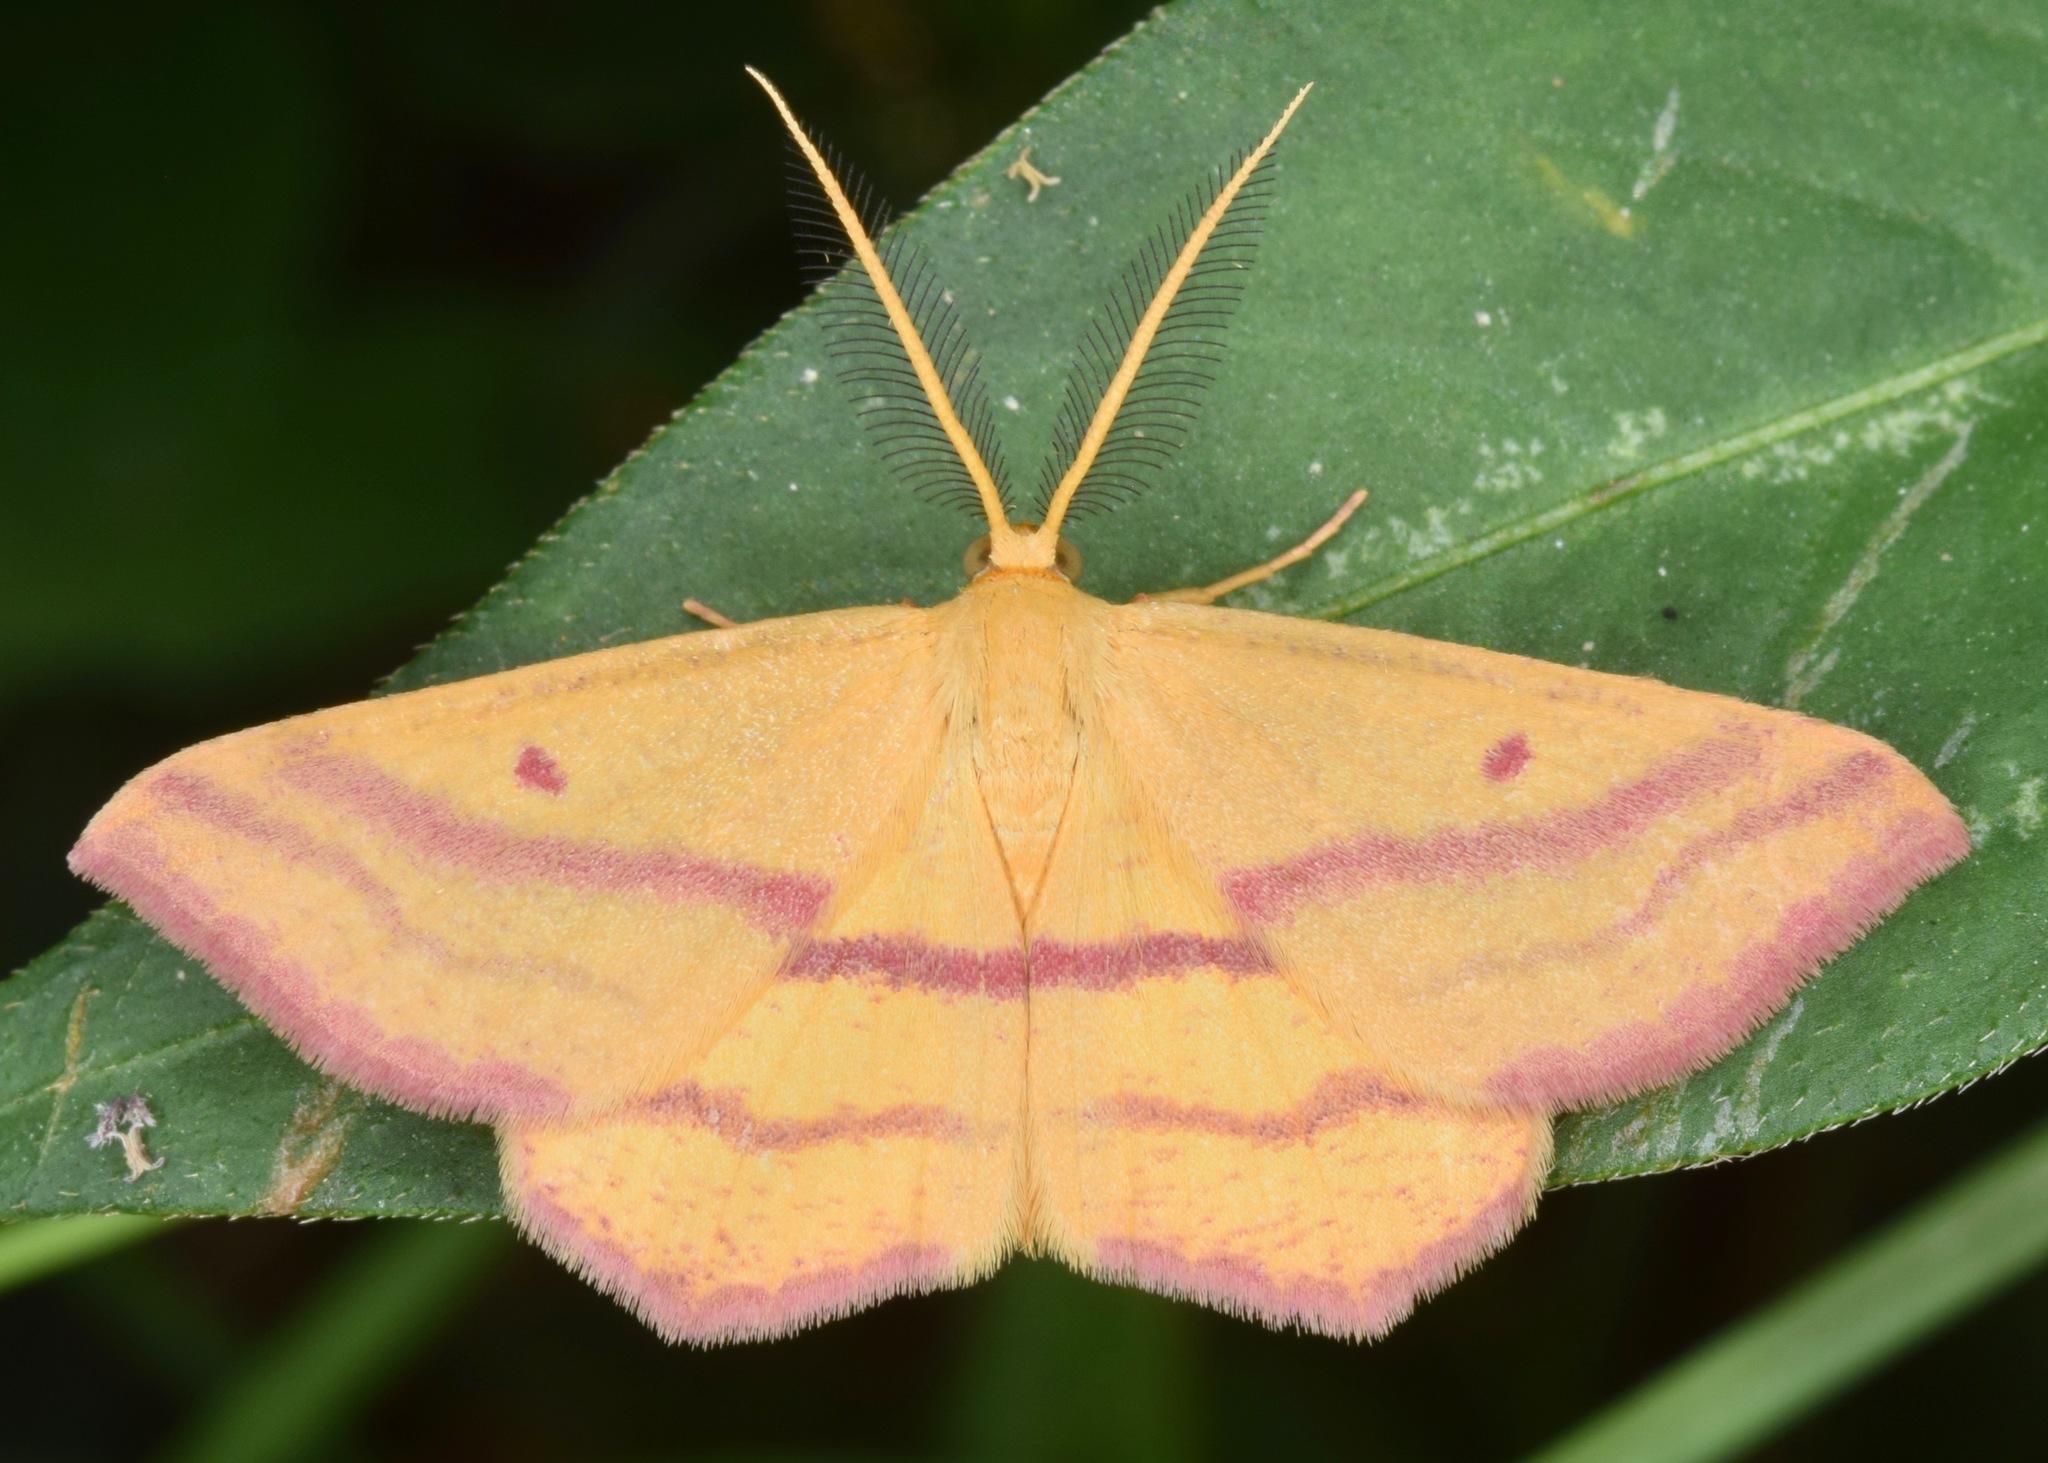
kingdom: Animalia
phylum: Arthropoda
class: Insecta
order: Lepidoptera
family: Geometridae
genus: Haematopis
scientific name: Haematopis grataria
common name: Chickweed geometer
